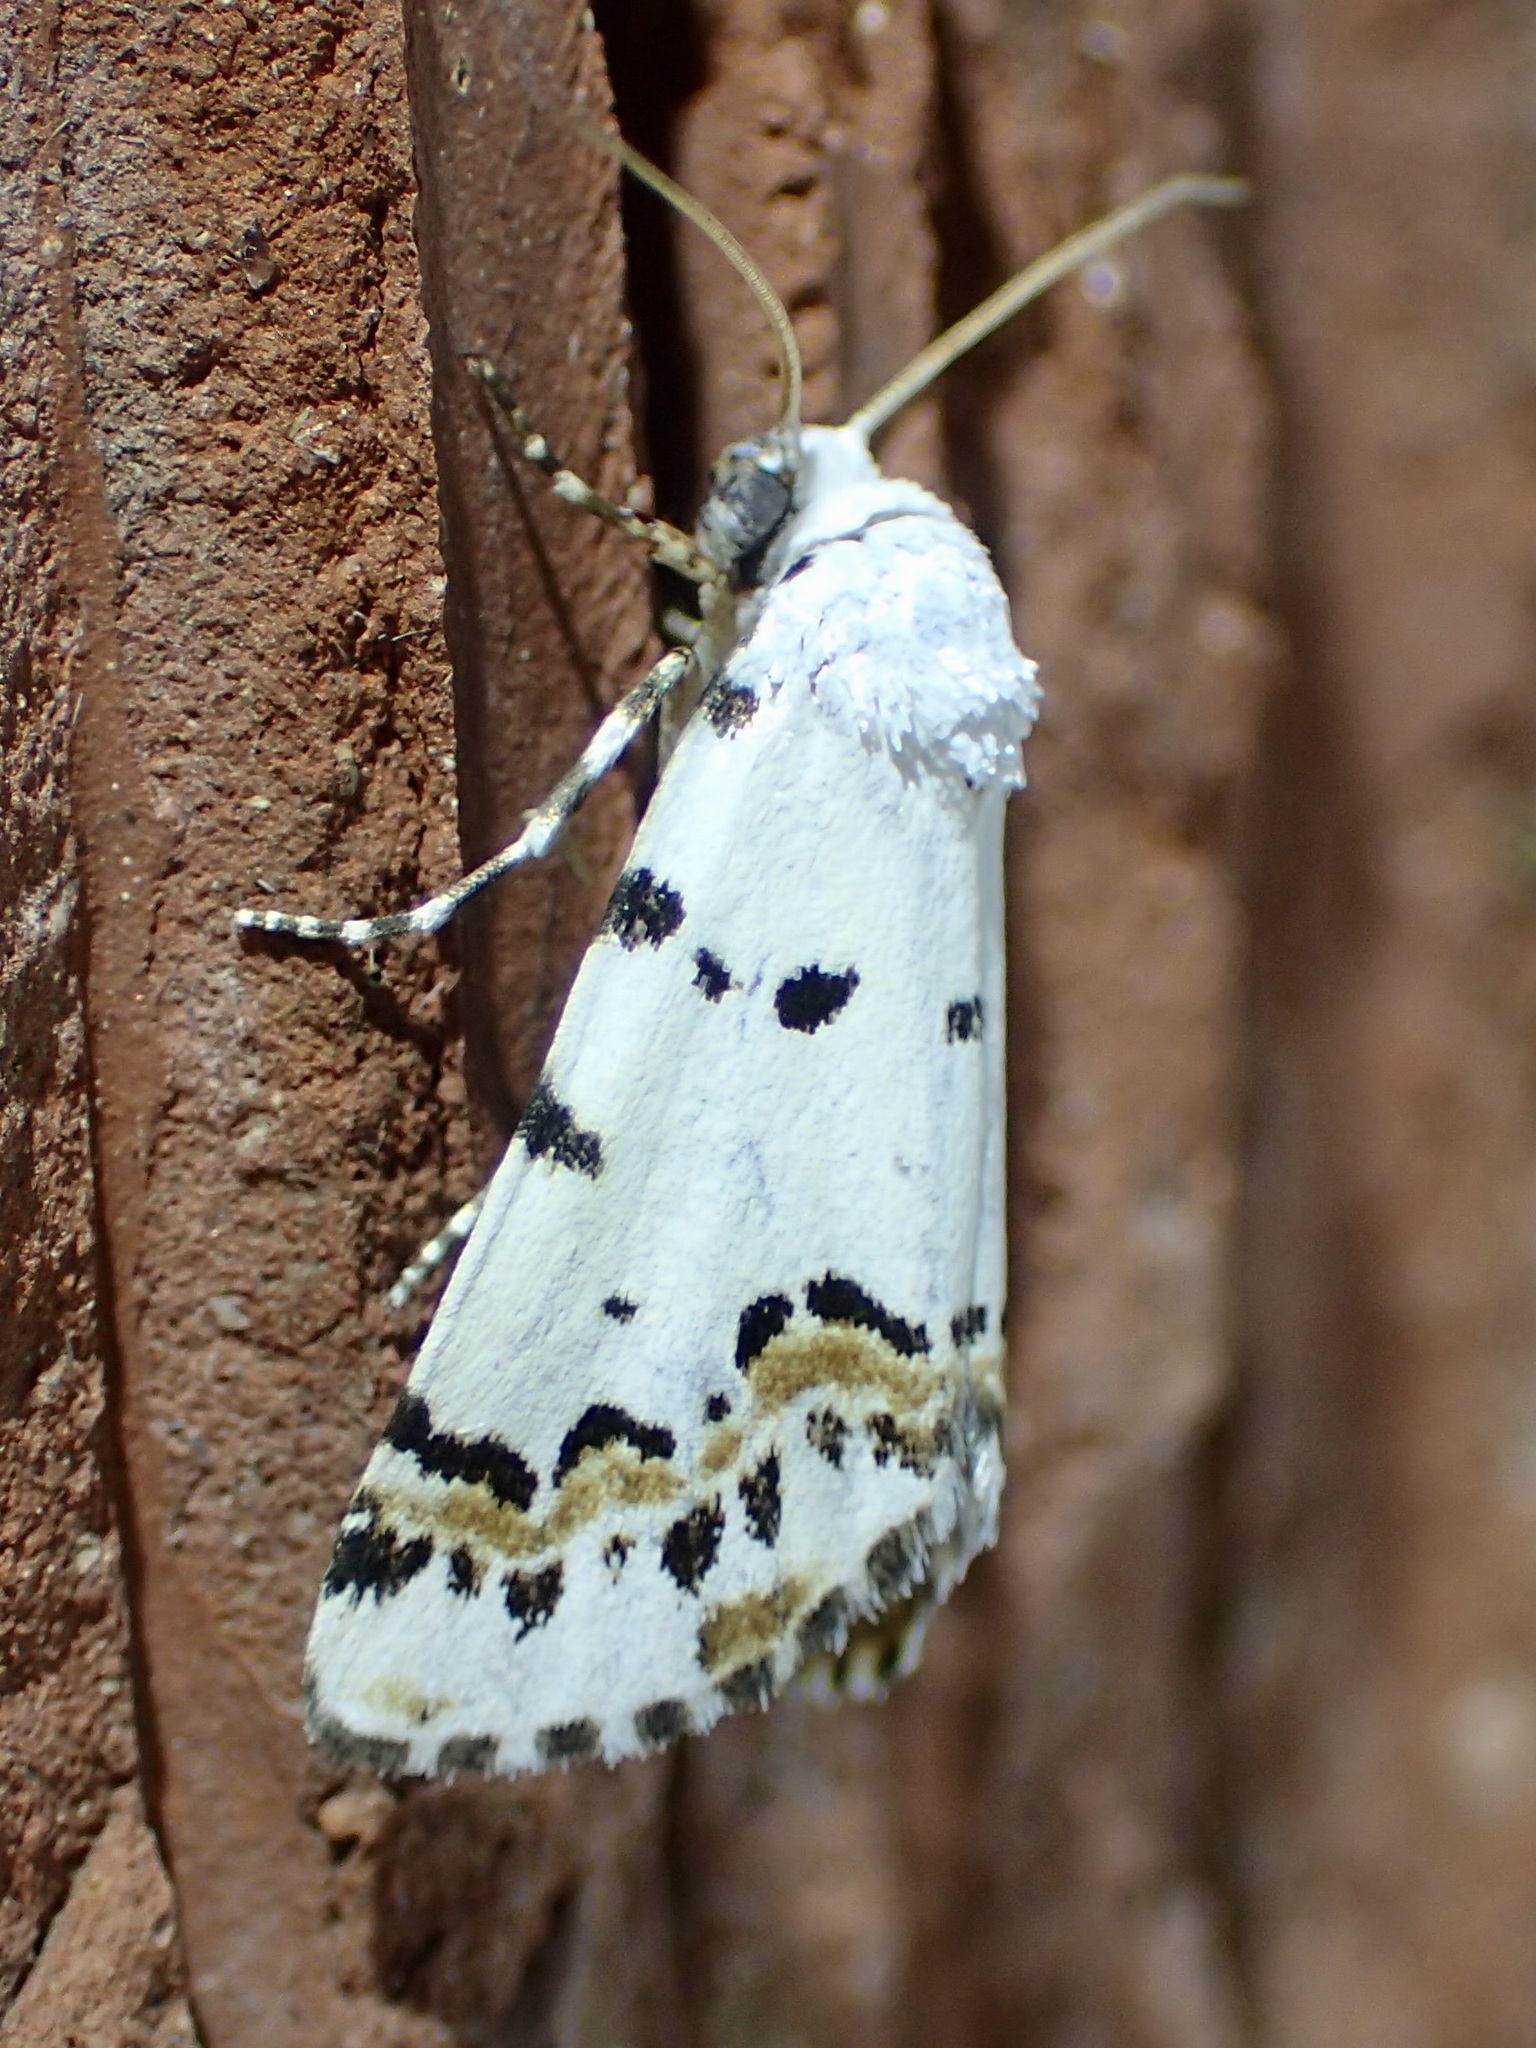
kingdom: Animalia
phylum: Arthropoda
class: Insecta
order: Lepidoptera
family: Noctuidae
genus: Grotella
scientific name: Grotella tricolor
